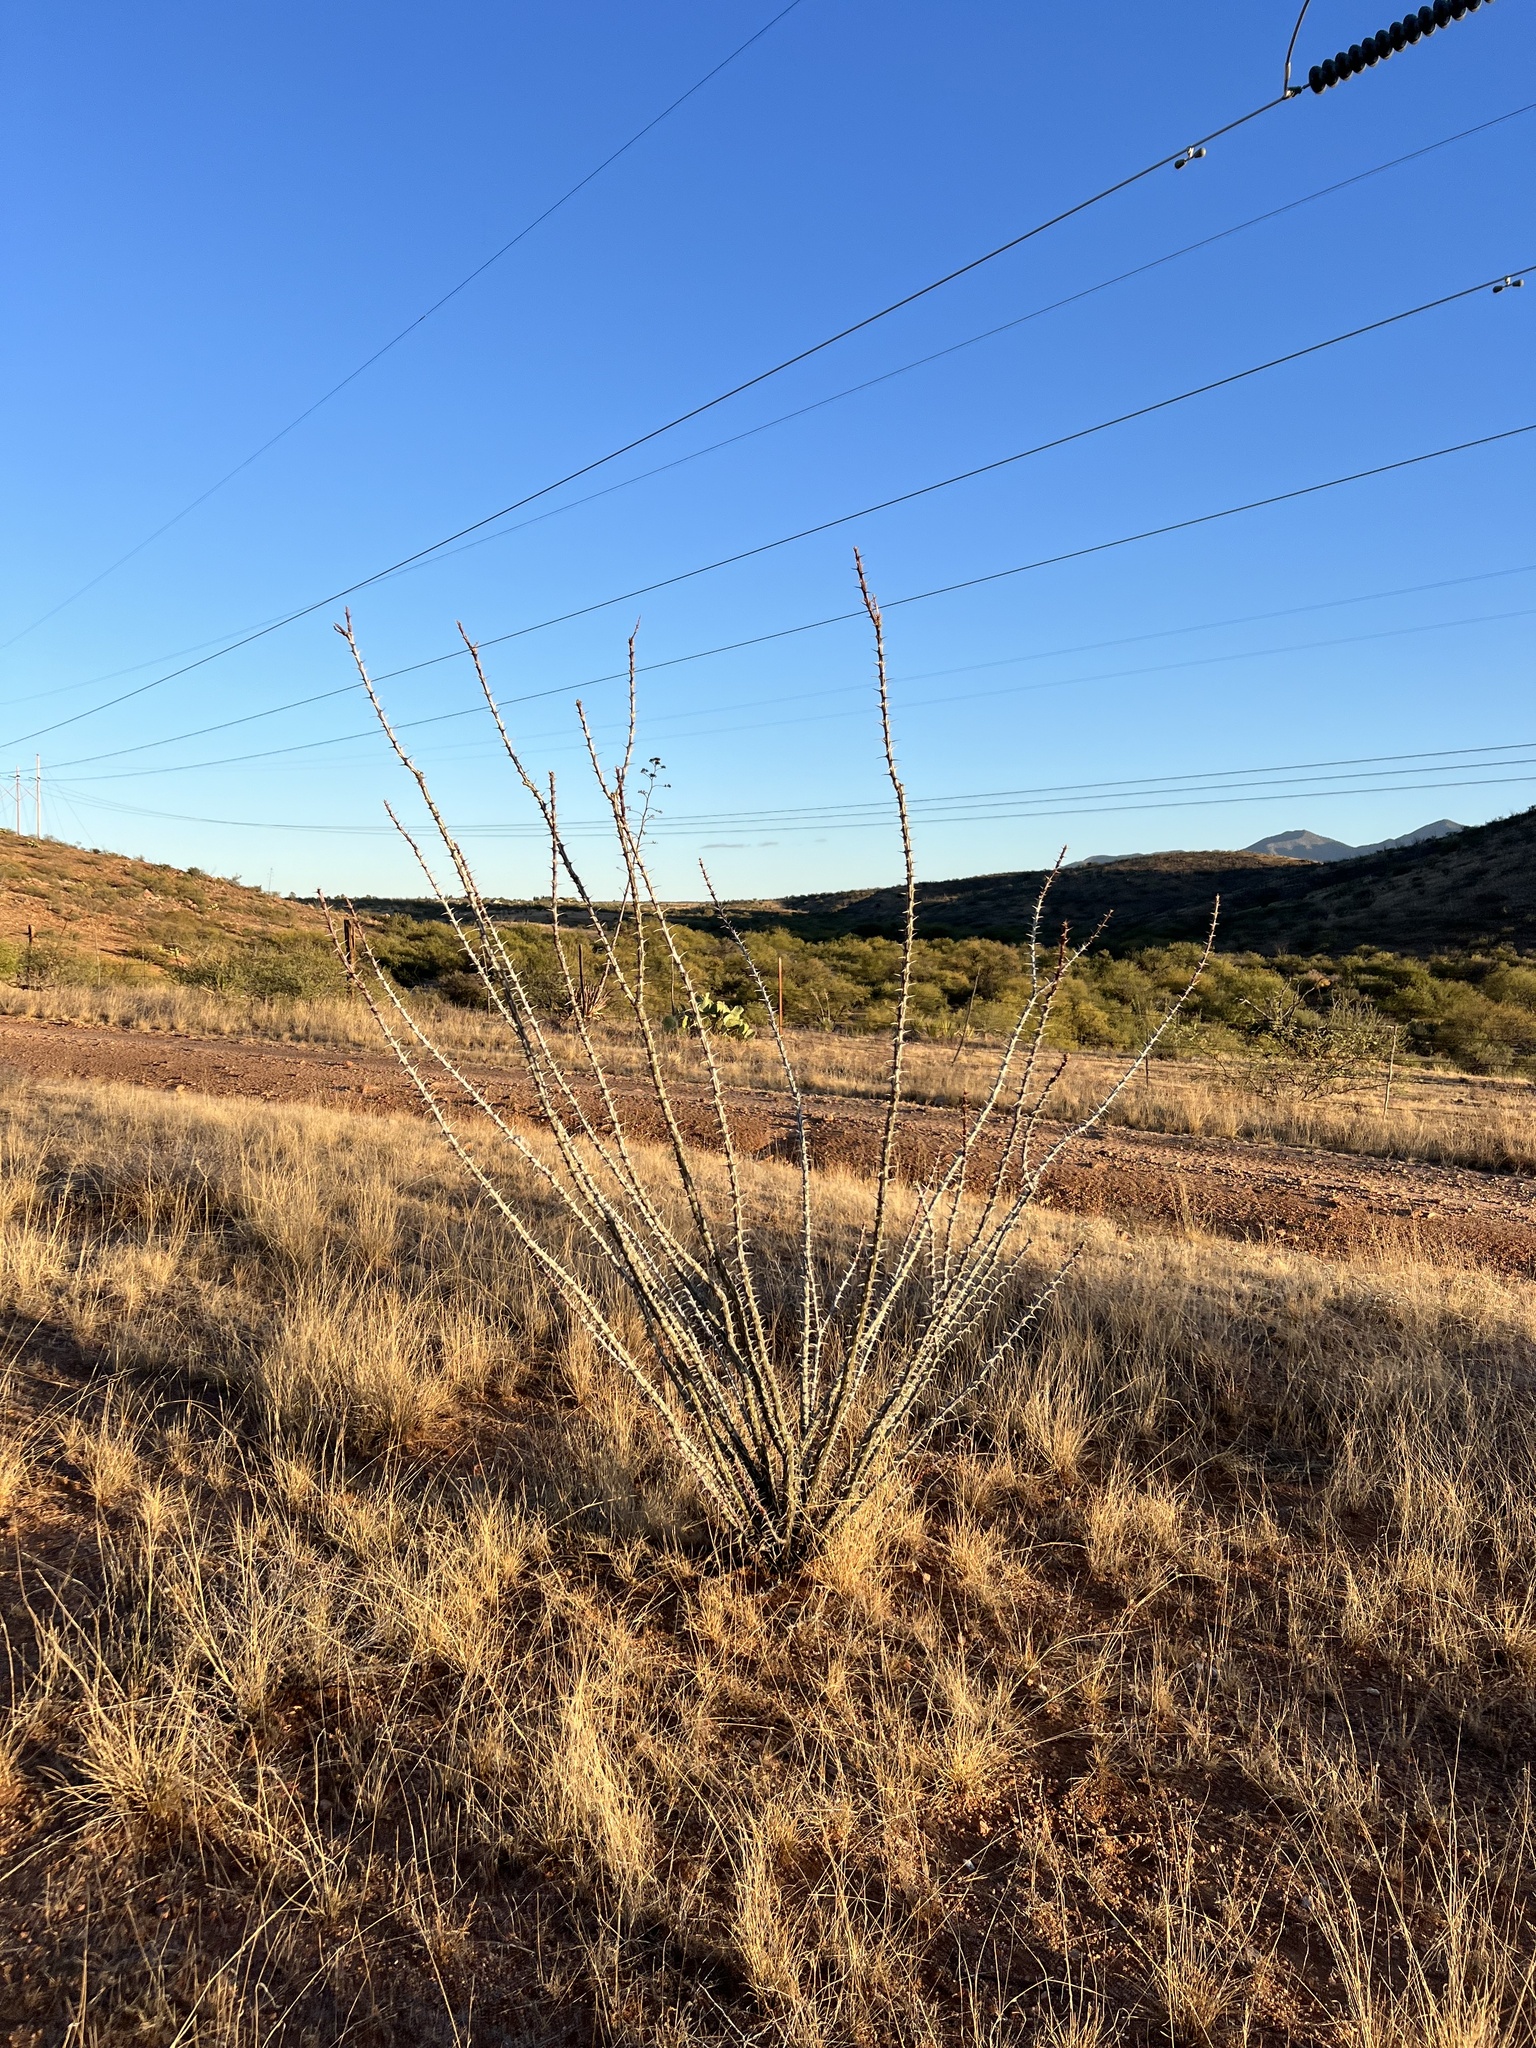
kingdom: Plantae
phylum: Tracheophyta
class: Magnoliopsida
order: Ericales
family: Fouquieriaceae
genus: Fouquieria
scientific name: Fouquieria splendens
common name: Vine-cactus
